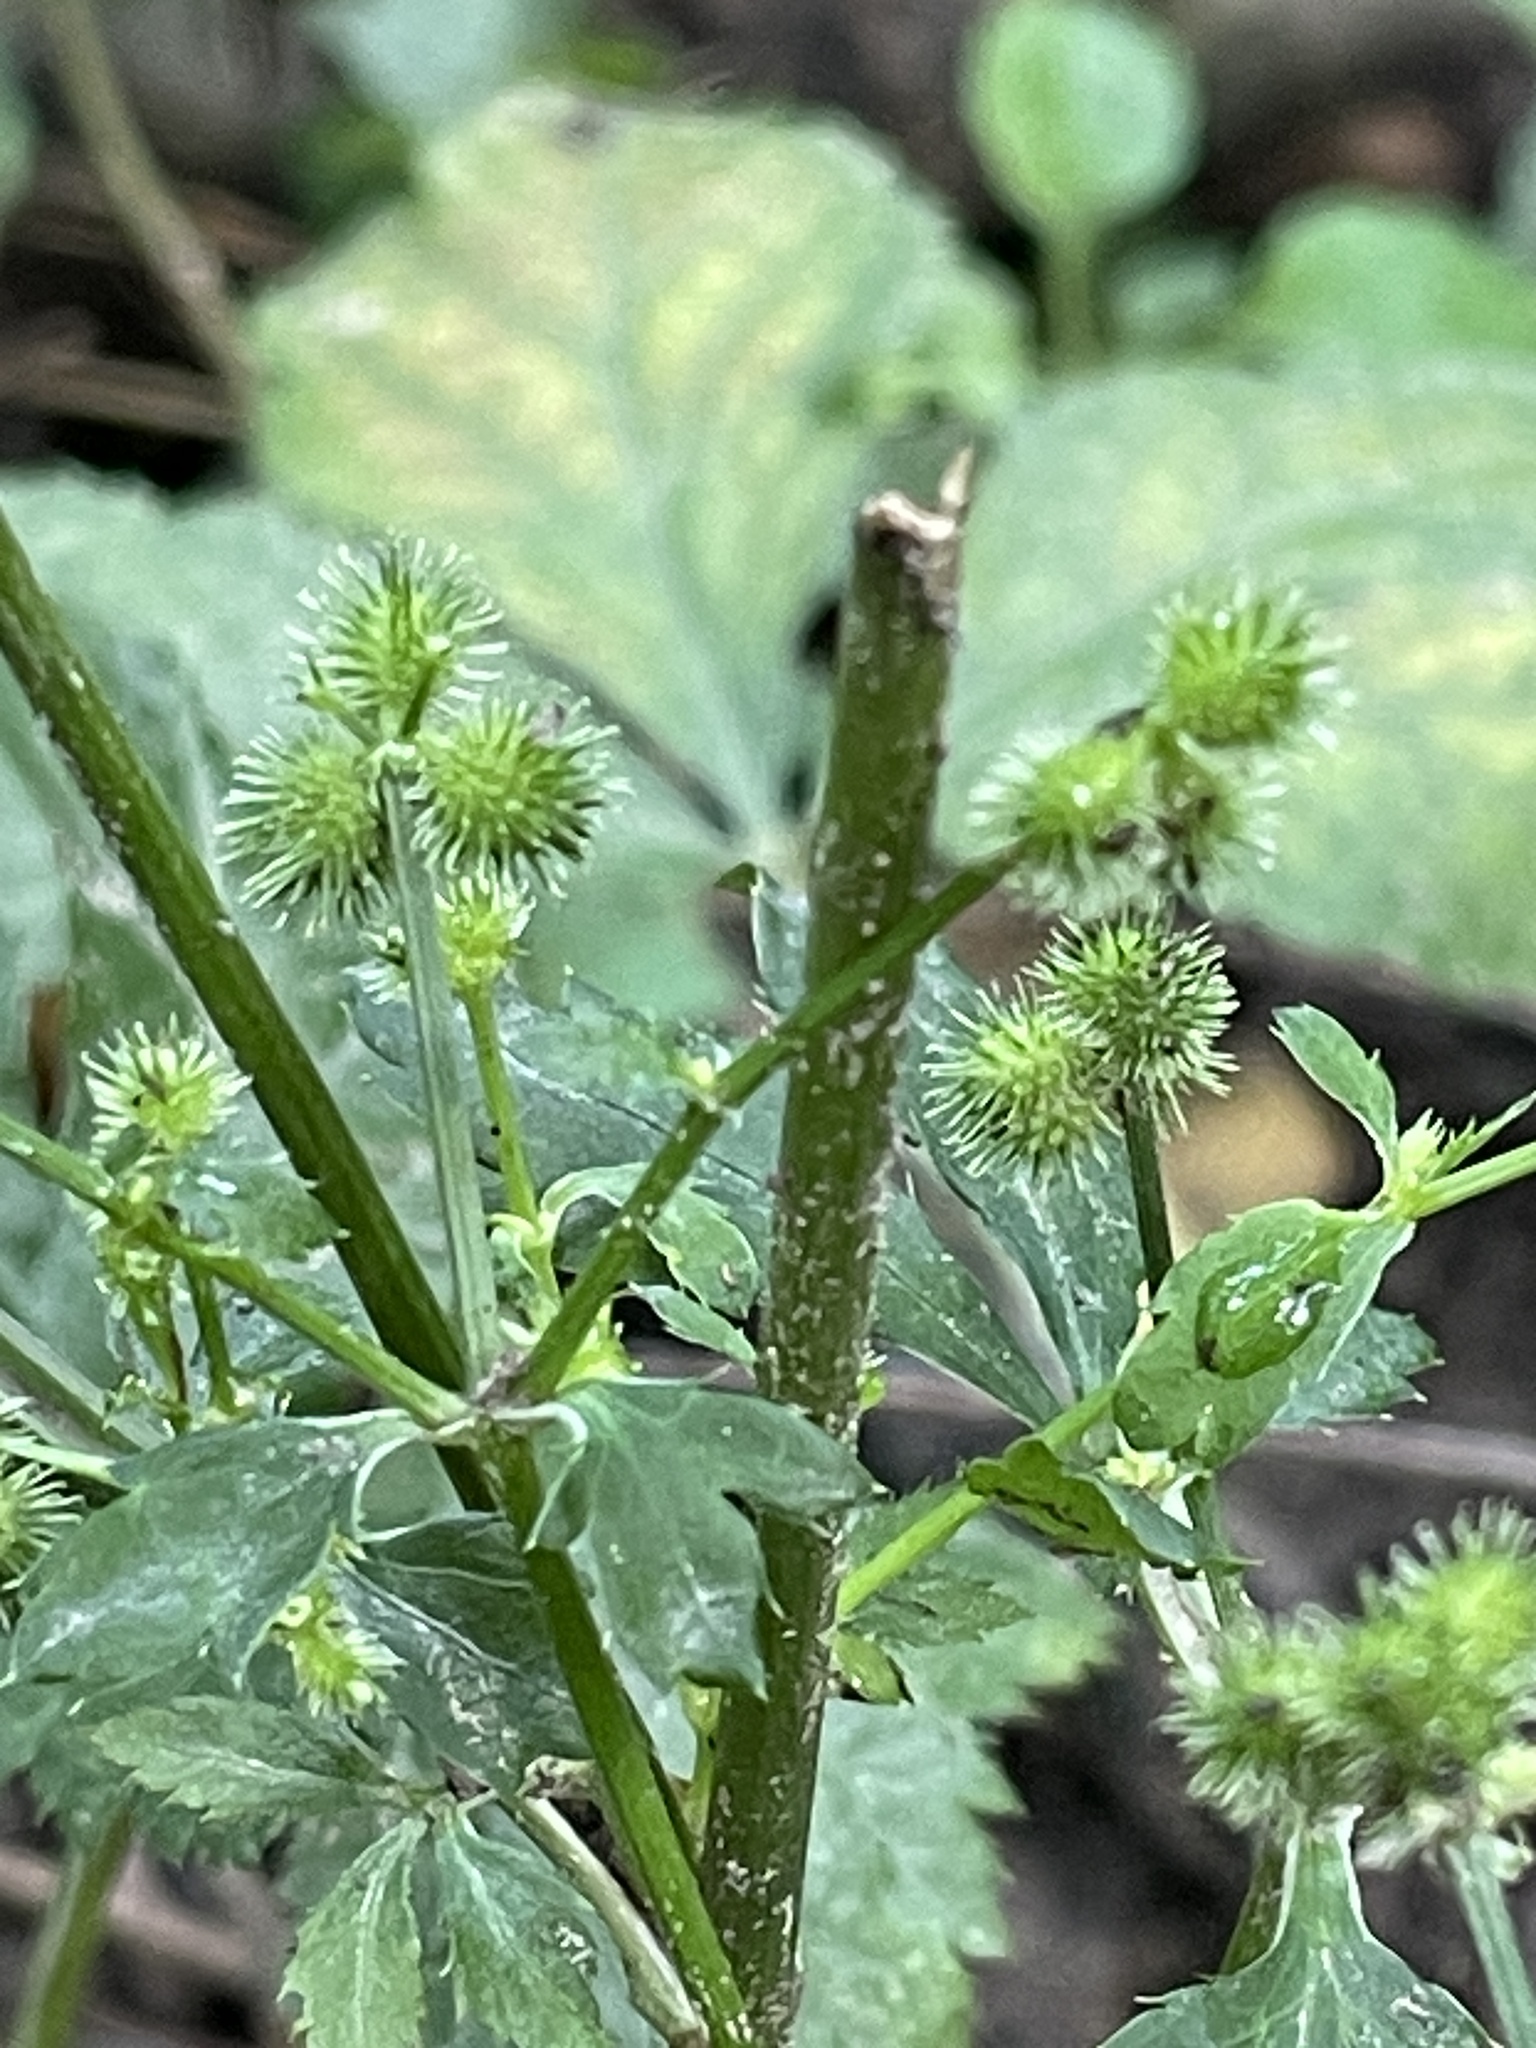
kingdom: Plantae
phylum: Tracheophyta
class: Magnoliopsida
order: Apiales
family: Apiaceae
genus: Sanicula
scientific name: Sanicula canadensis
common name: Canada sanicle
